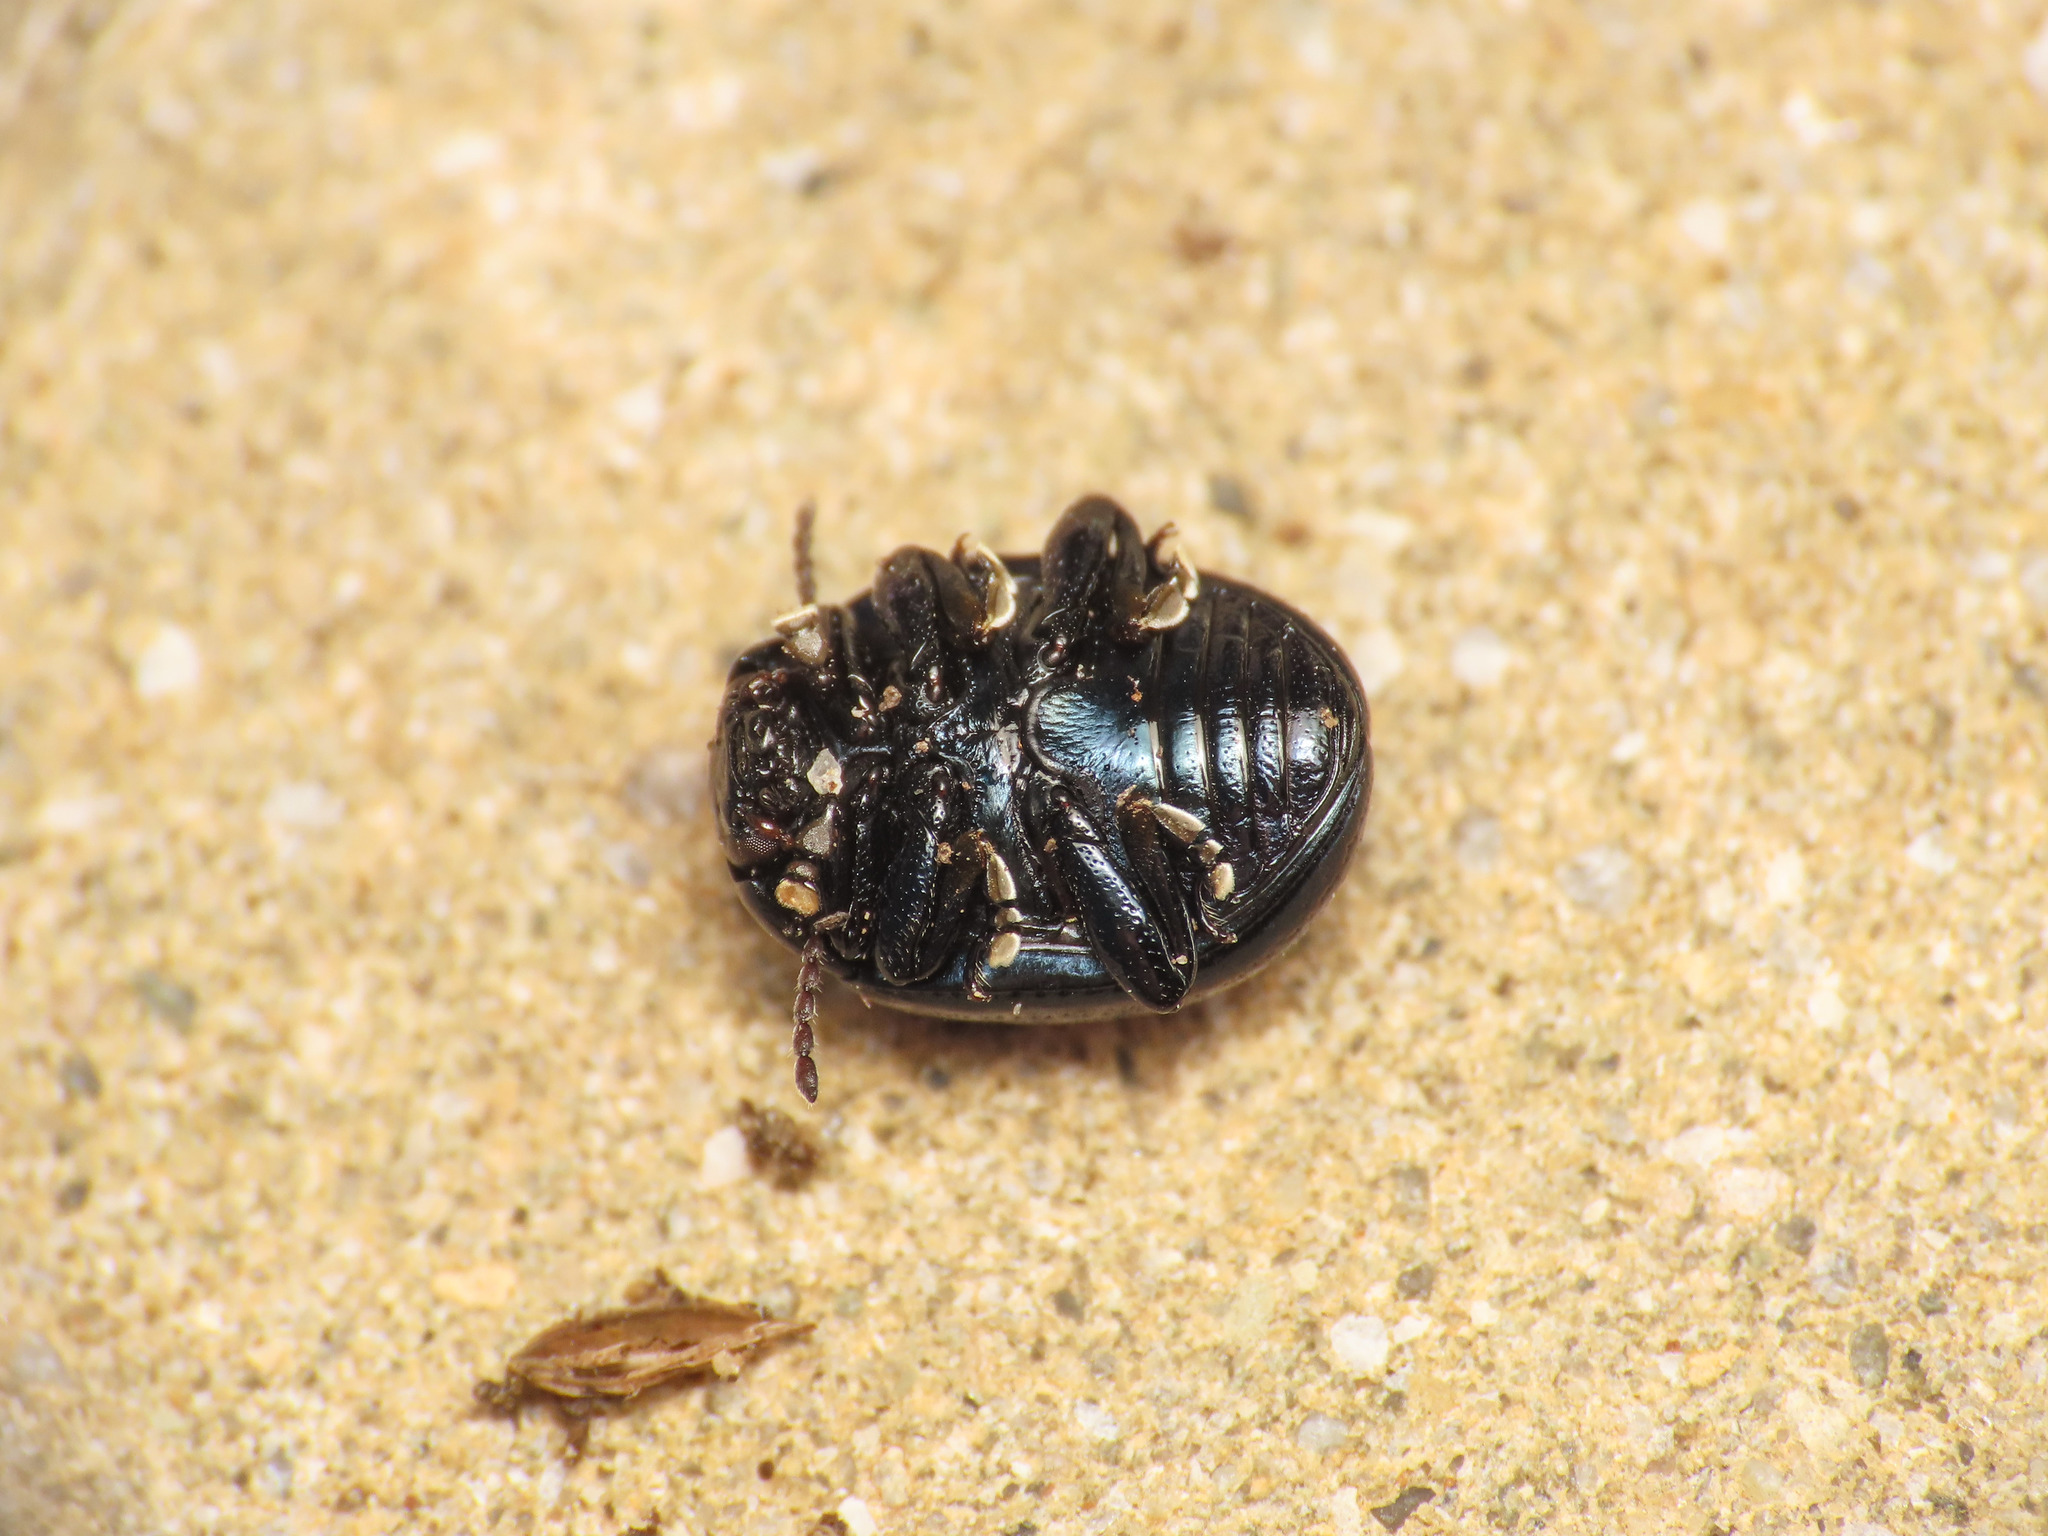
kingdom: Animalia
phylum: Arthropoda
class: Insecta
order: Coleoptera
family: Chrysomelidae
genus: Chrysolina
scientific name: Chrysolina haemoptera
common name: Plantain leaf beetle
